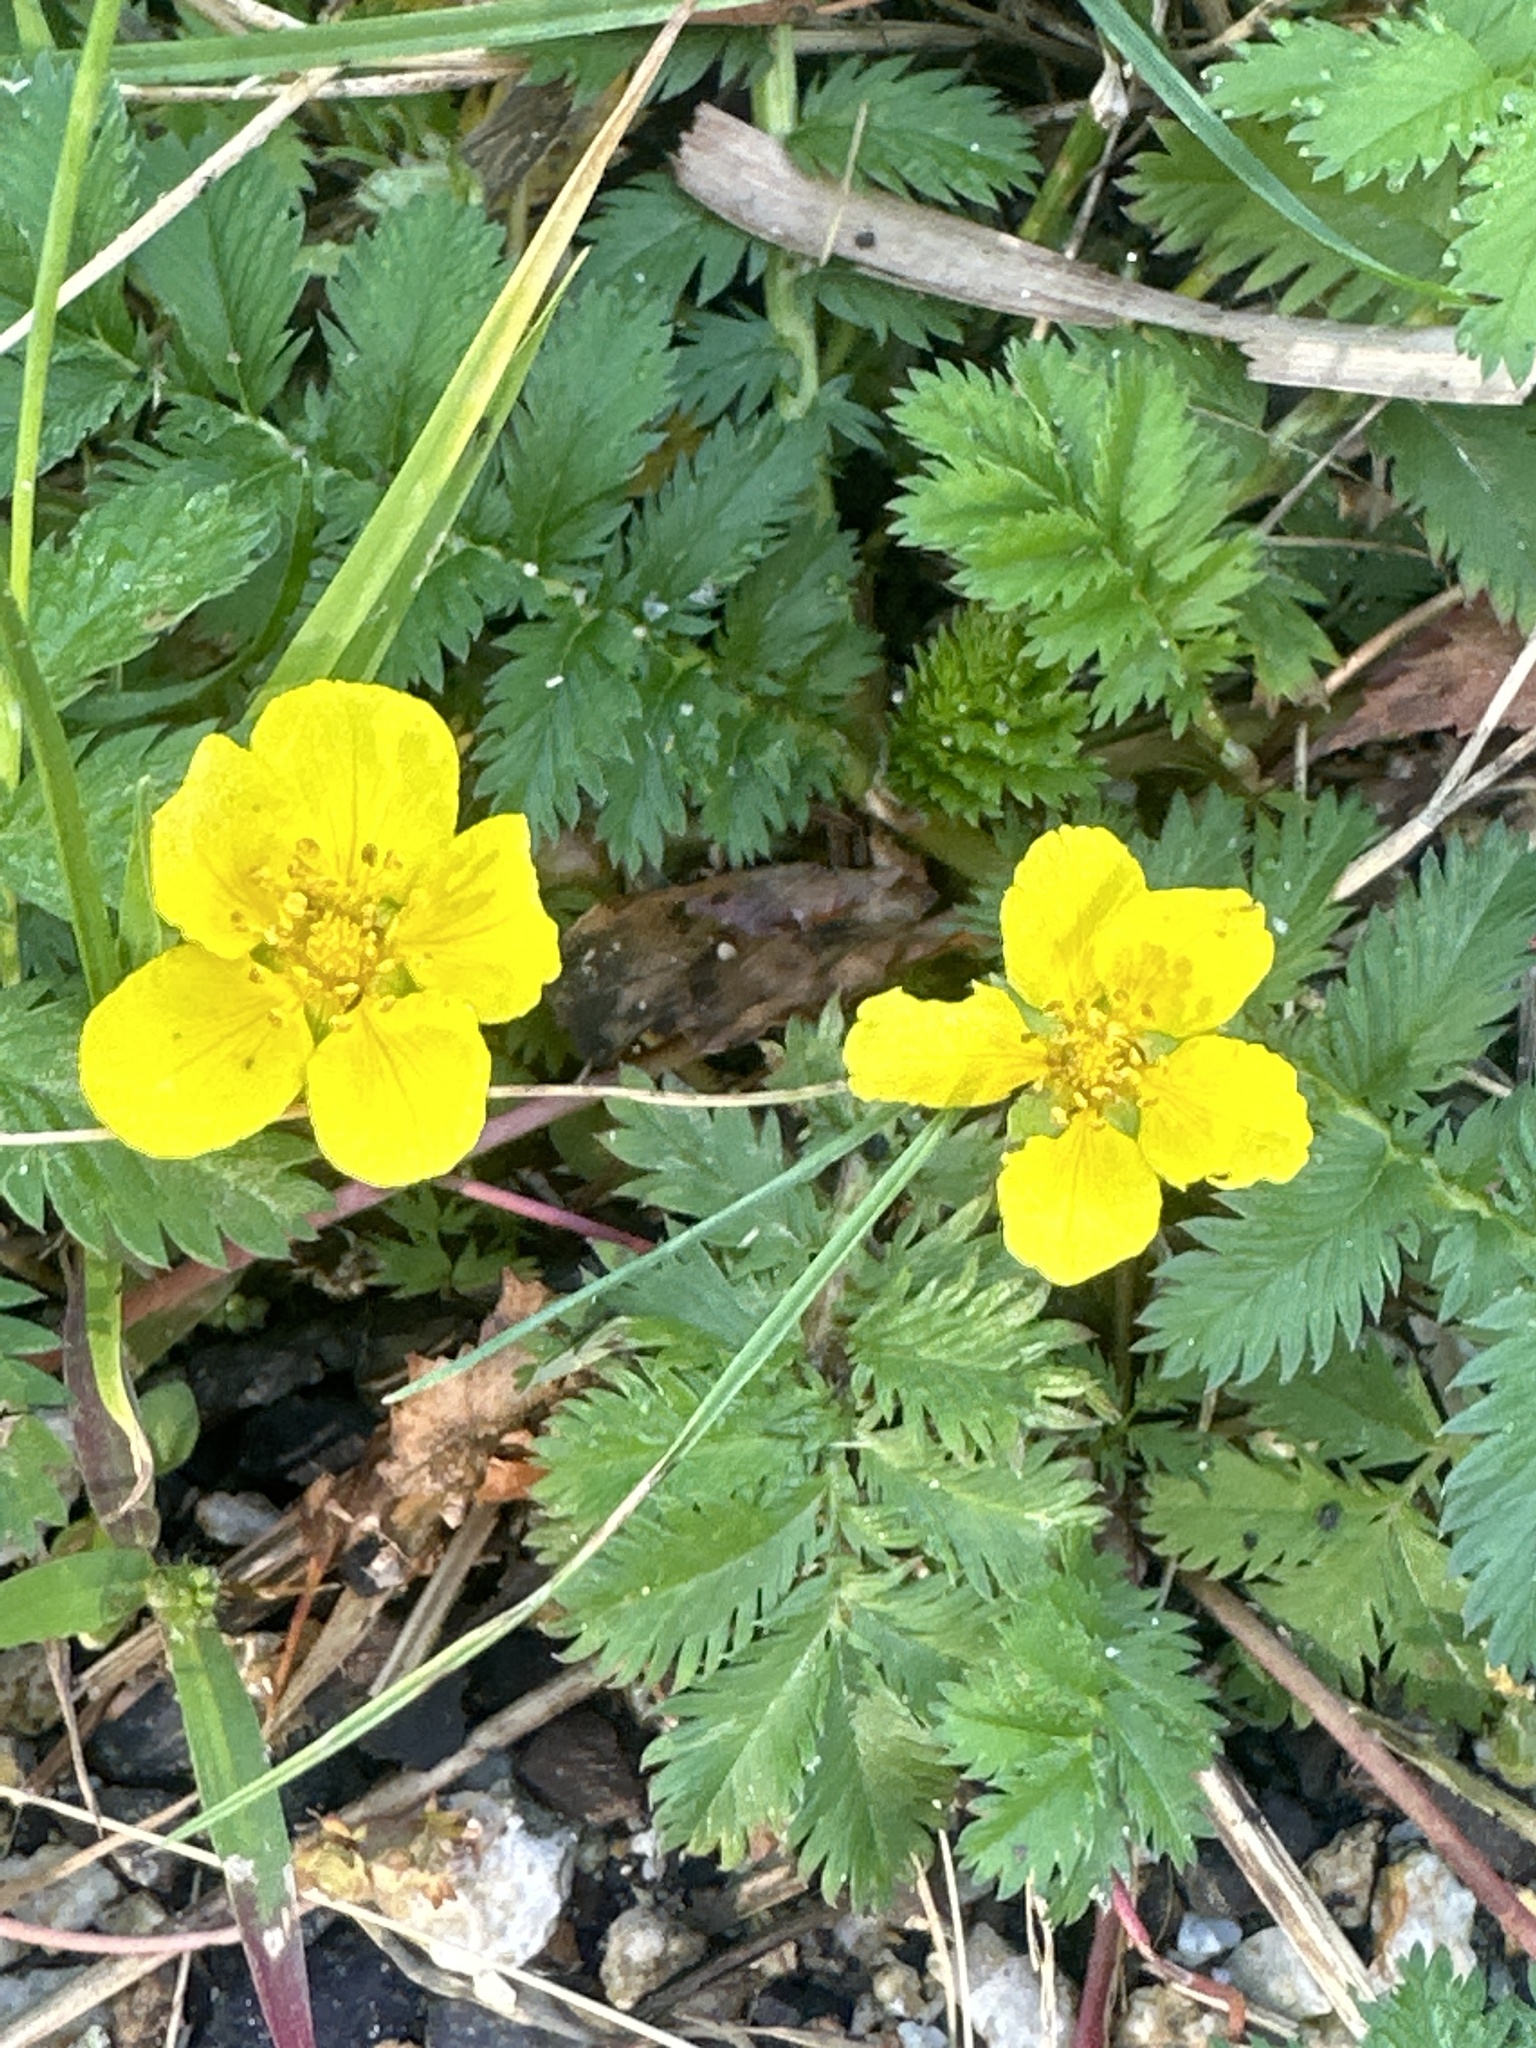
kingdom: Plantae
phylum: Tracheophyta
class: Magnoliopsida
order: Rosales
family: Rosaceae
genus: Argentina
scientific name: Argentina anserina
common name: Common silverweed
